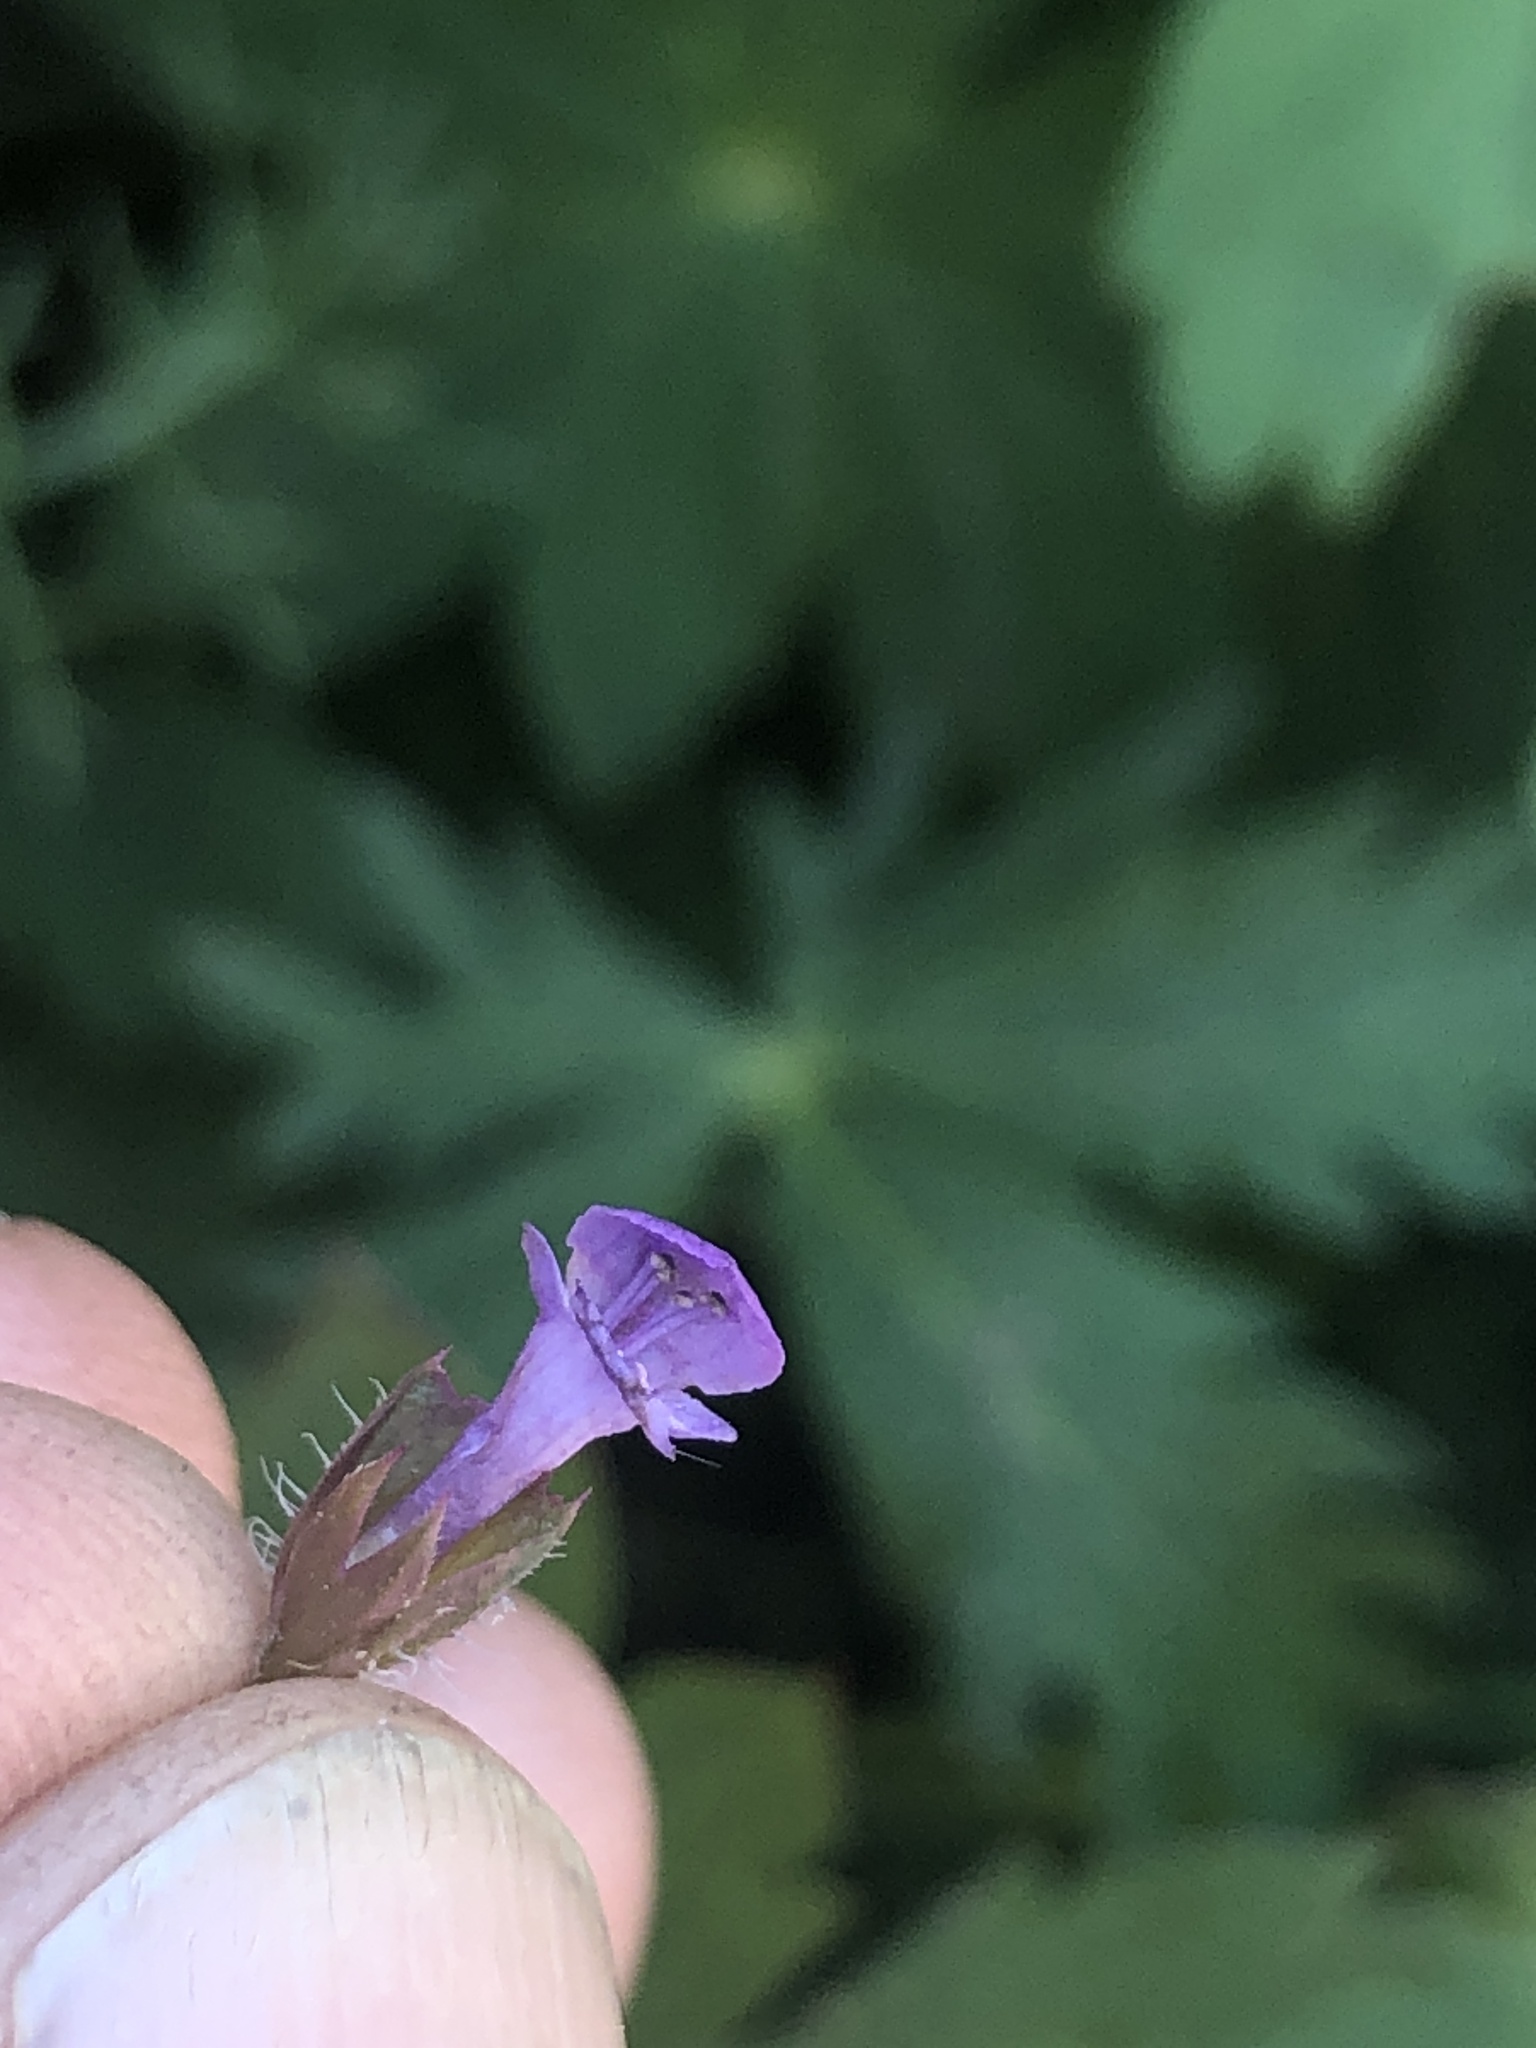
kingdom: Plantae
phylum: Tracheophyta
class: Magnoliopsida
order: Lamiales
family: Lamiaceae
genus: Prunella
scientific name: Prunella vulgaris
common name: Heal-all
